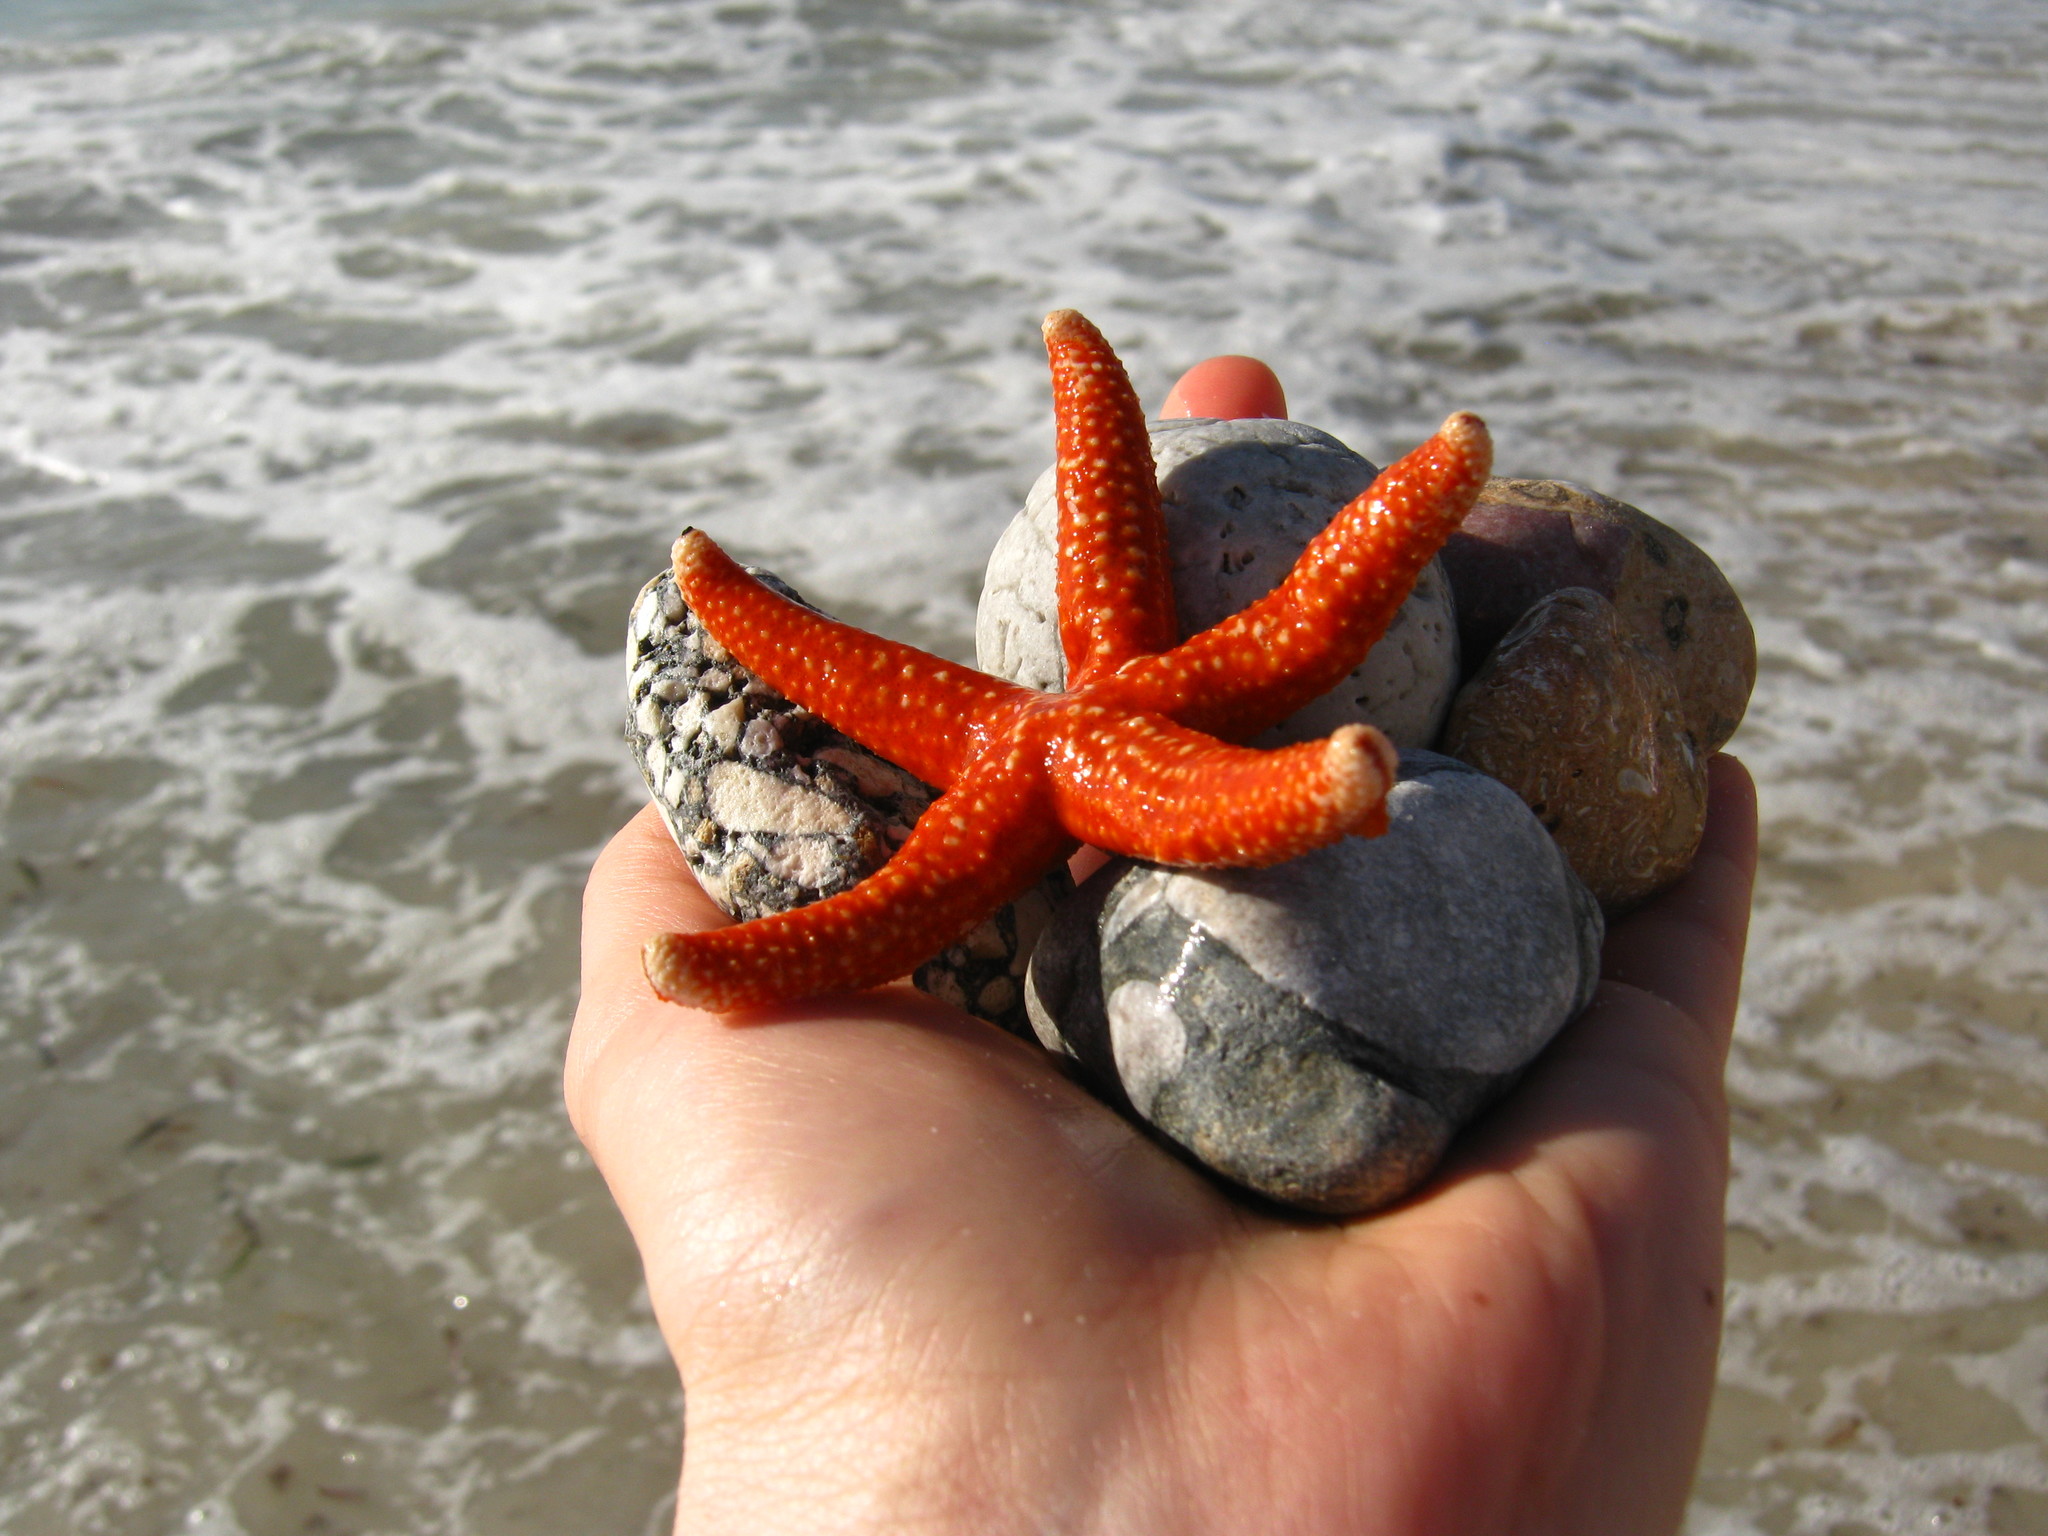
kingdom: Animalia
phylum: Echinodermata
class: Asteroidea
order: Spinulosida
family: Echinasteridae
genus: Echinaster
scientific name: Echinaster paucispinus
